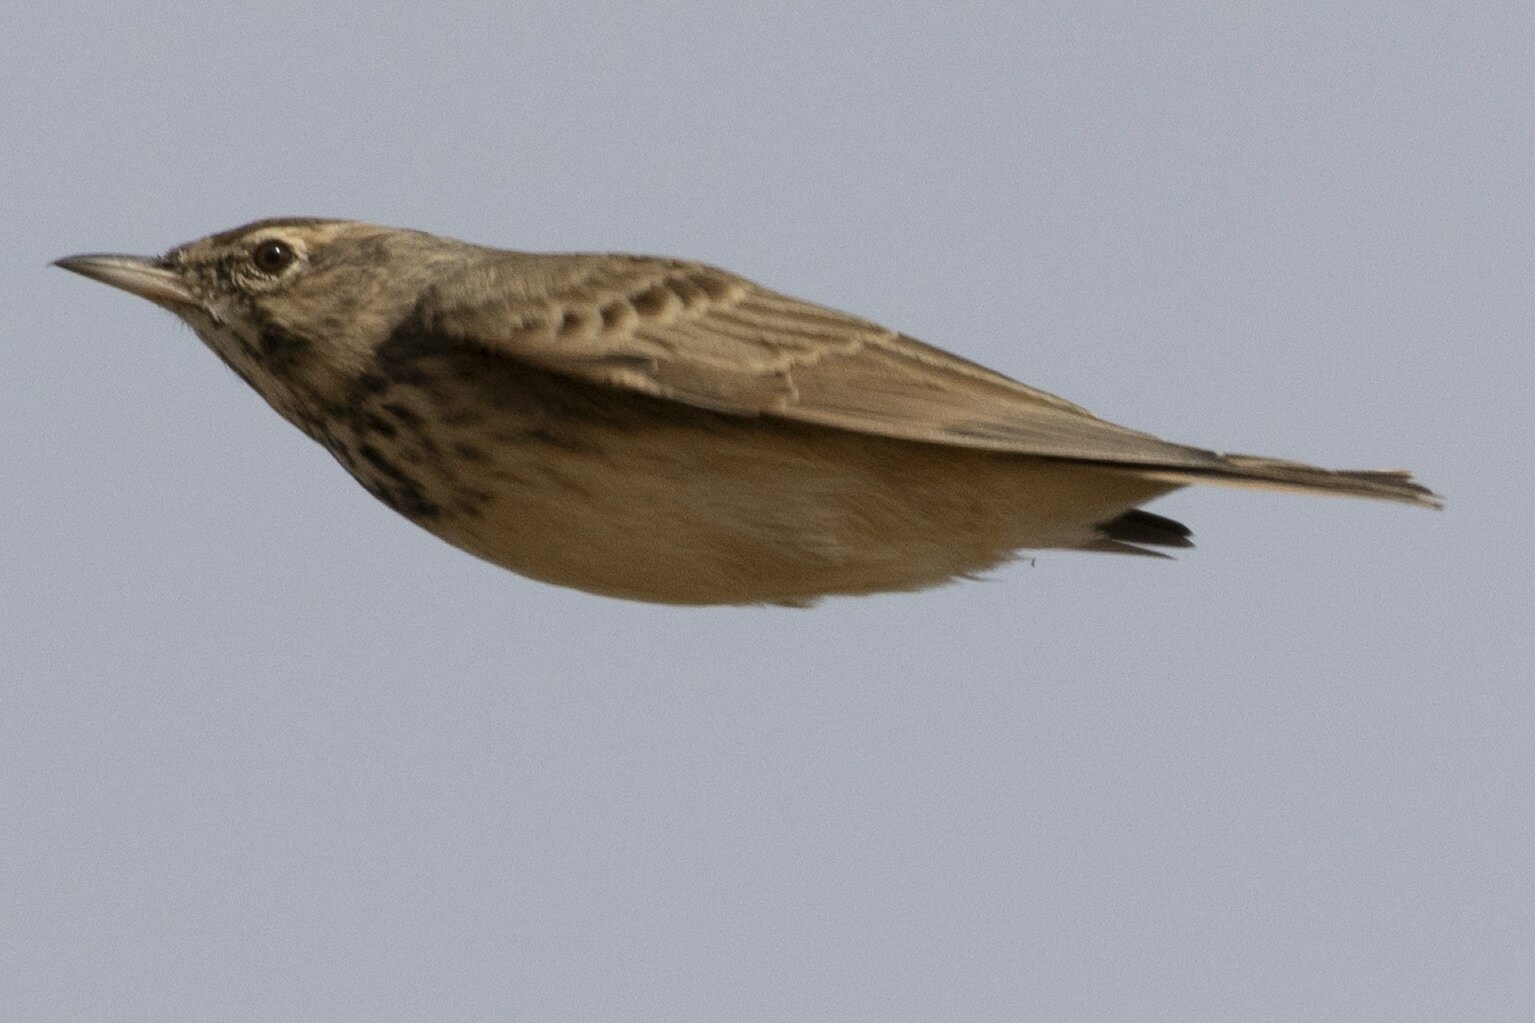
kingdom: Animalia
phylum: Chordata
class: Aves
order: Passeriformes
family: Alaudidae
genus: Galerida
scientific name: Galerida cristata
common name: Crested lark
